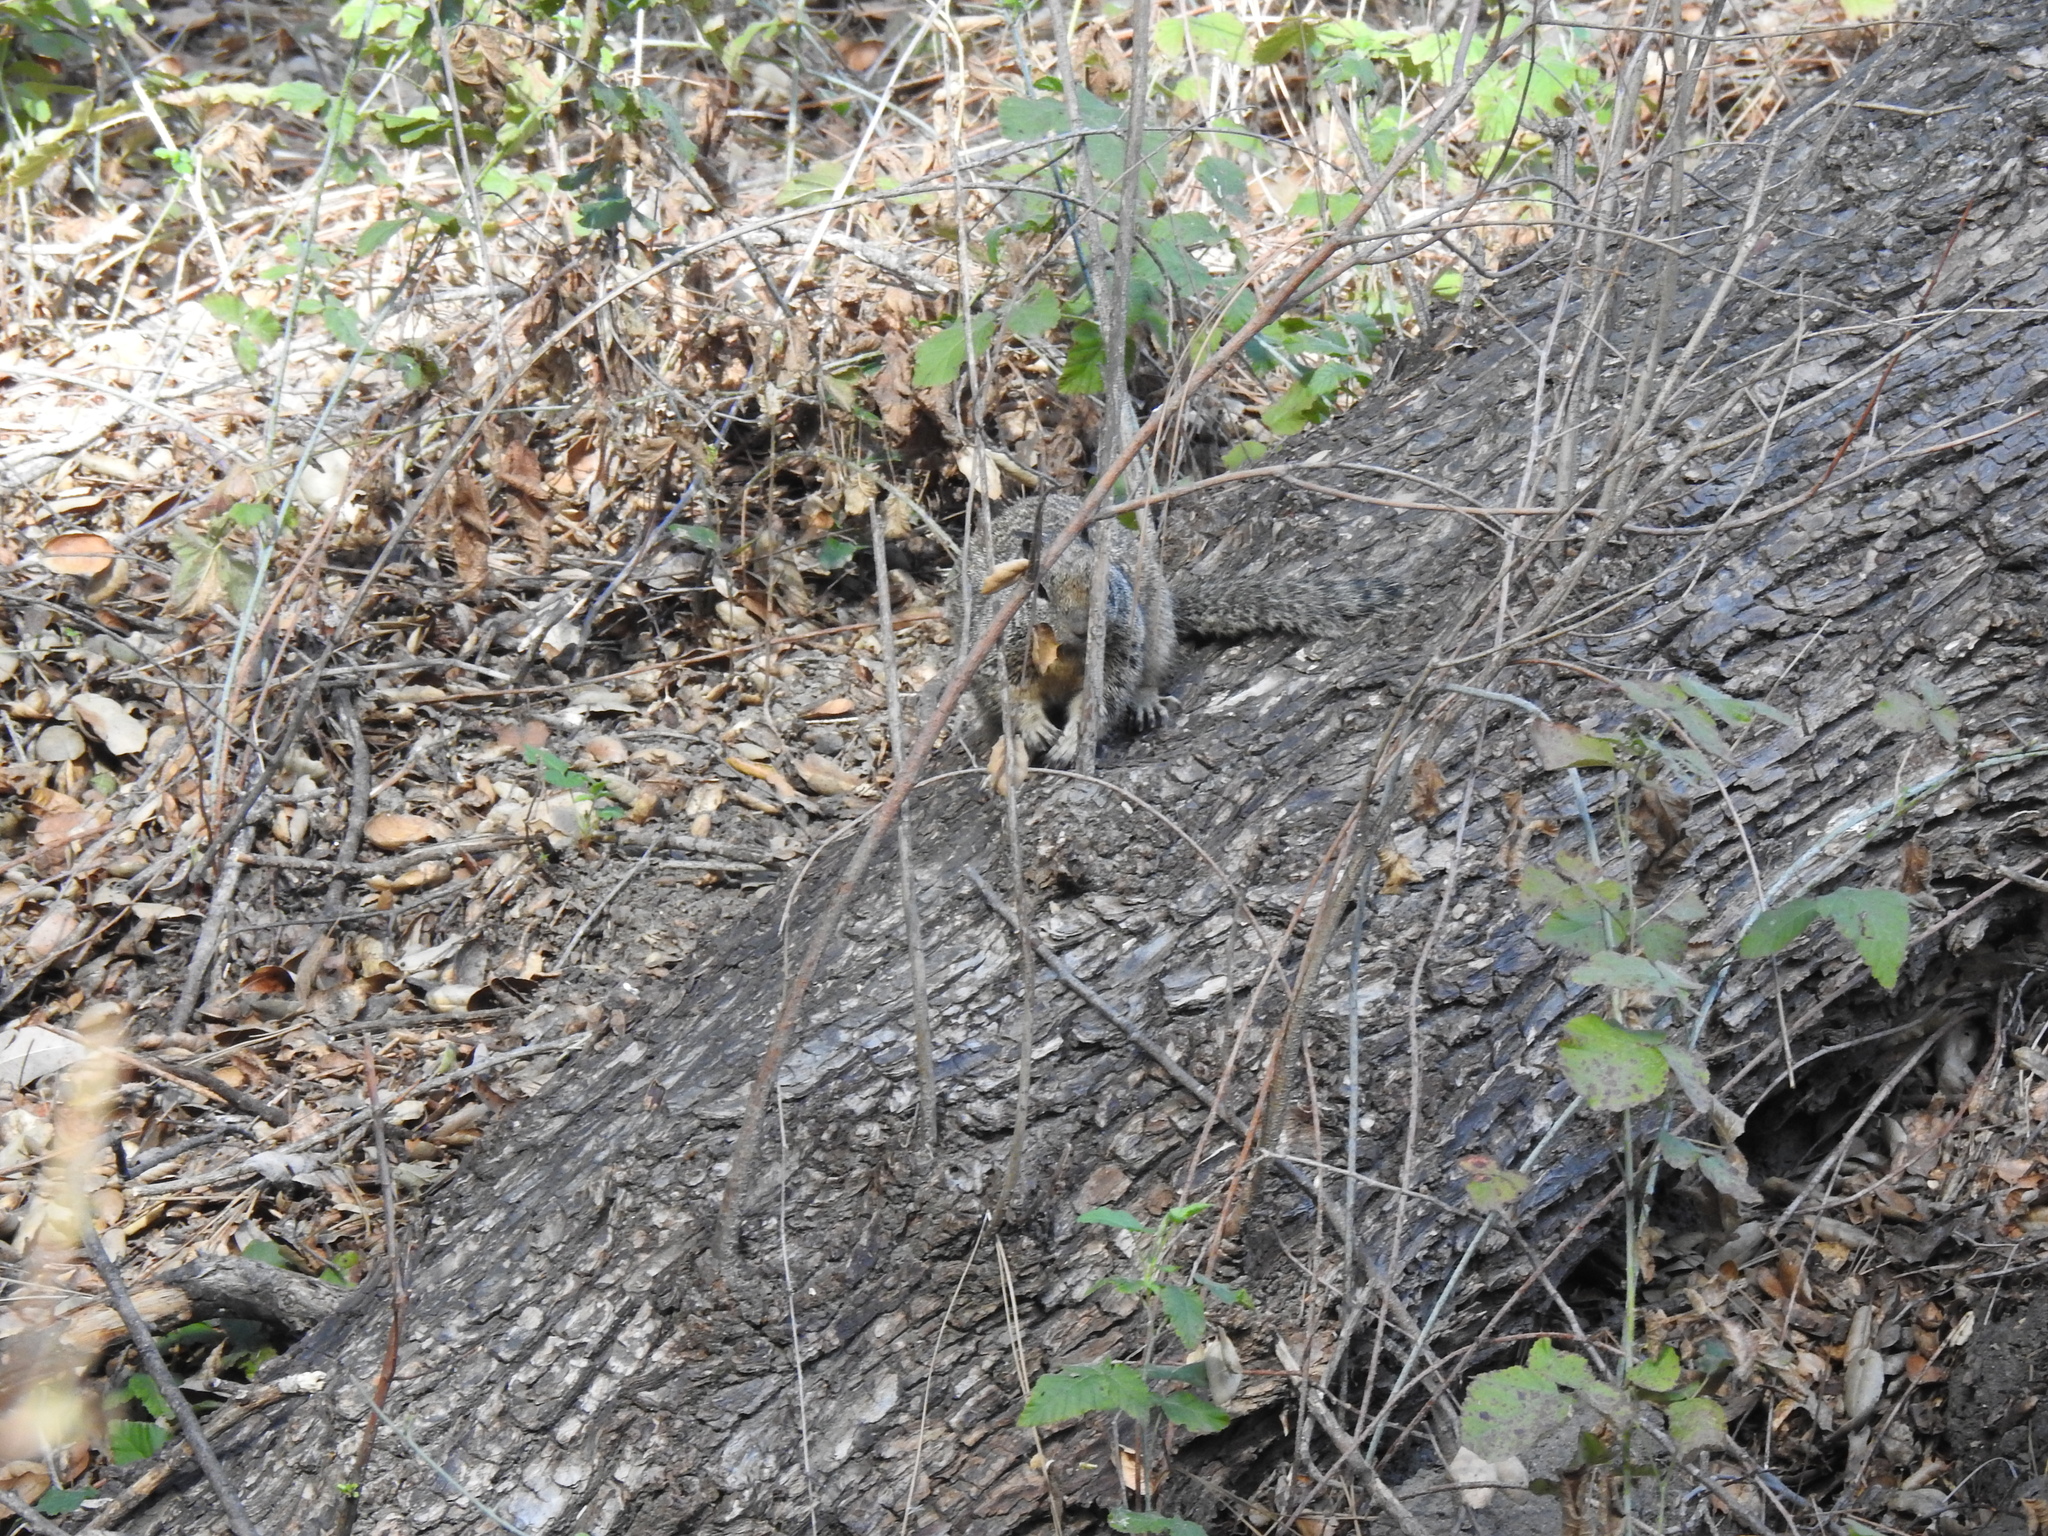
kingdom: Animalia
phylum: Chordata
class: Mammalia
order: Rodentia
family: Sciuridae
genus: Otospermophilus
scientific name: Otospermophilus beecheyi
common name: California ground squirrel
